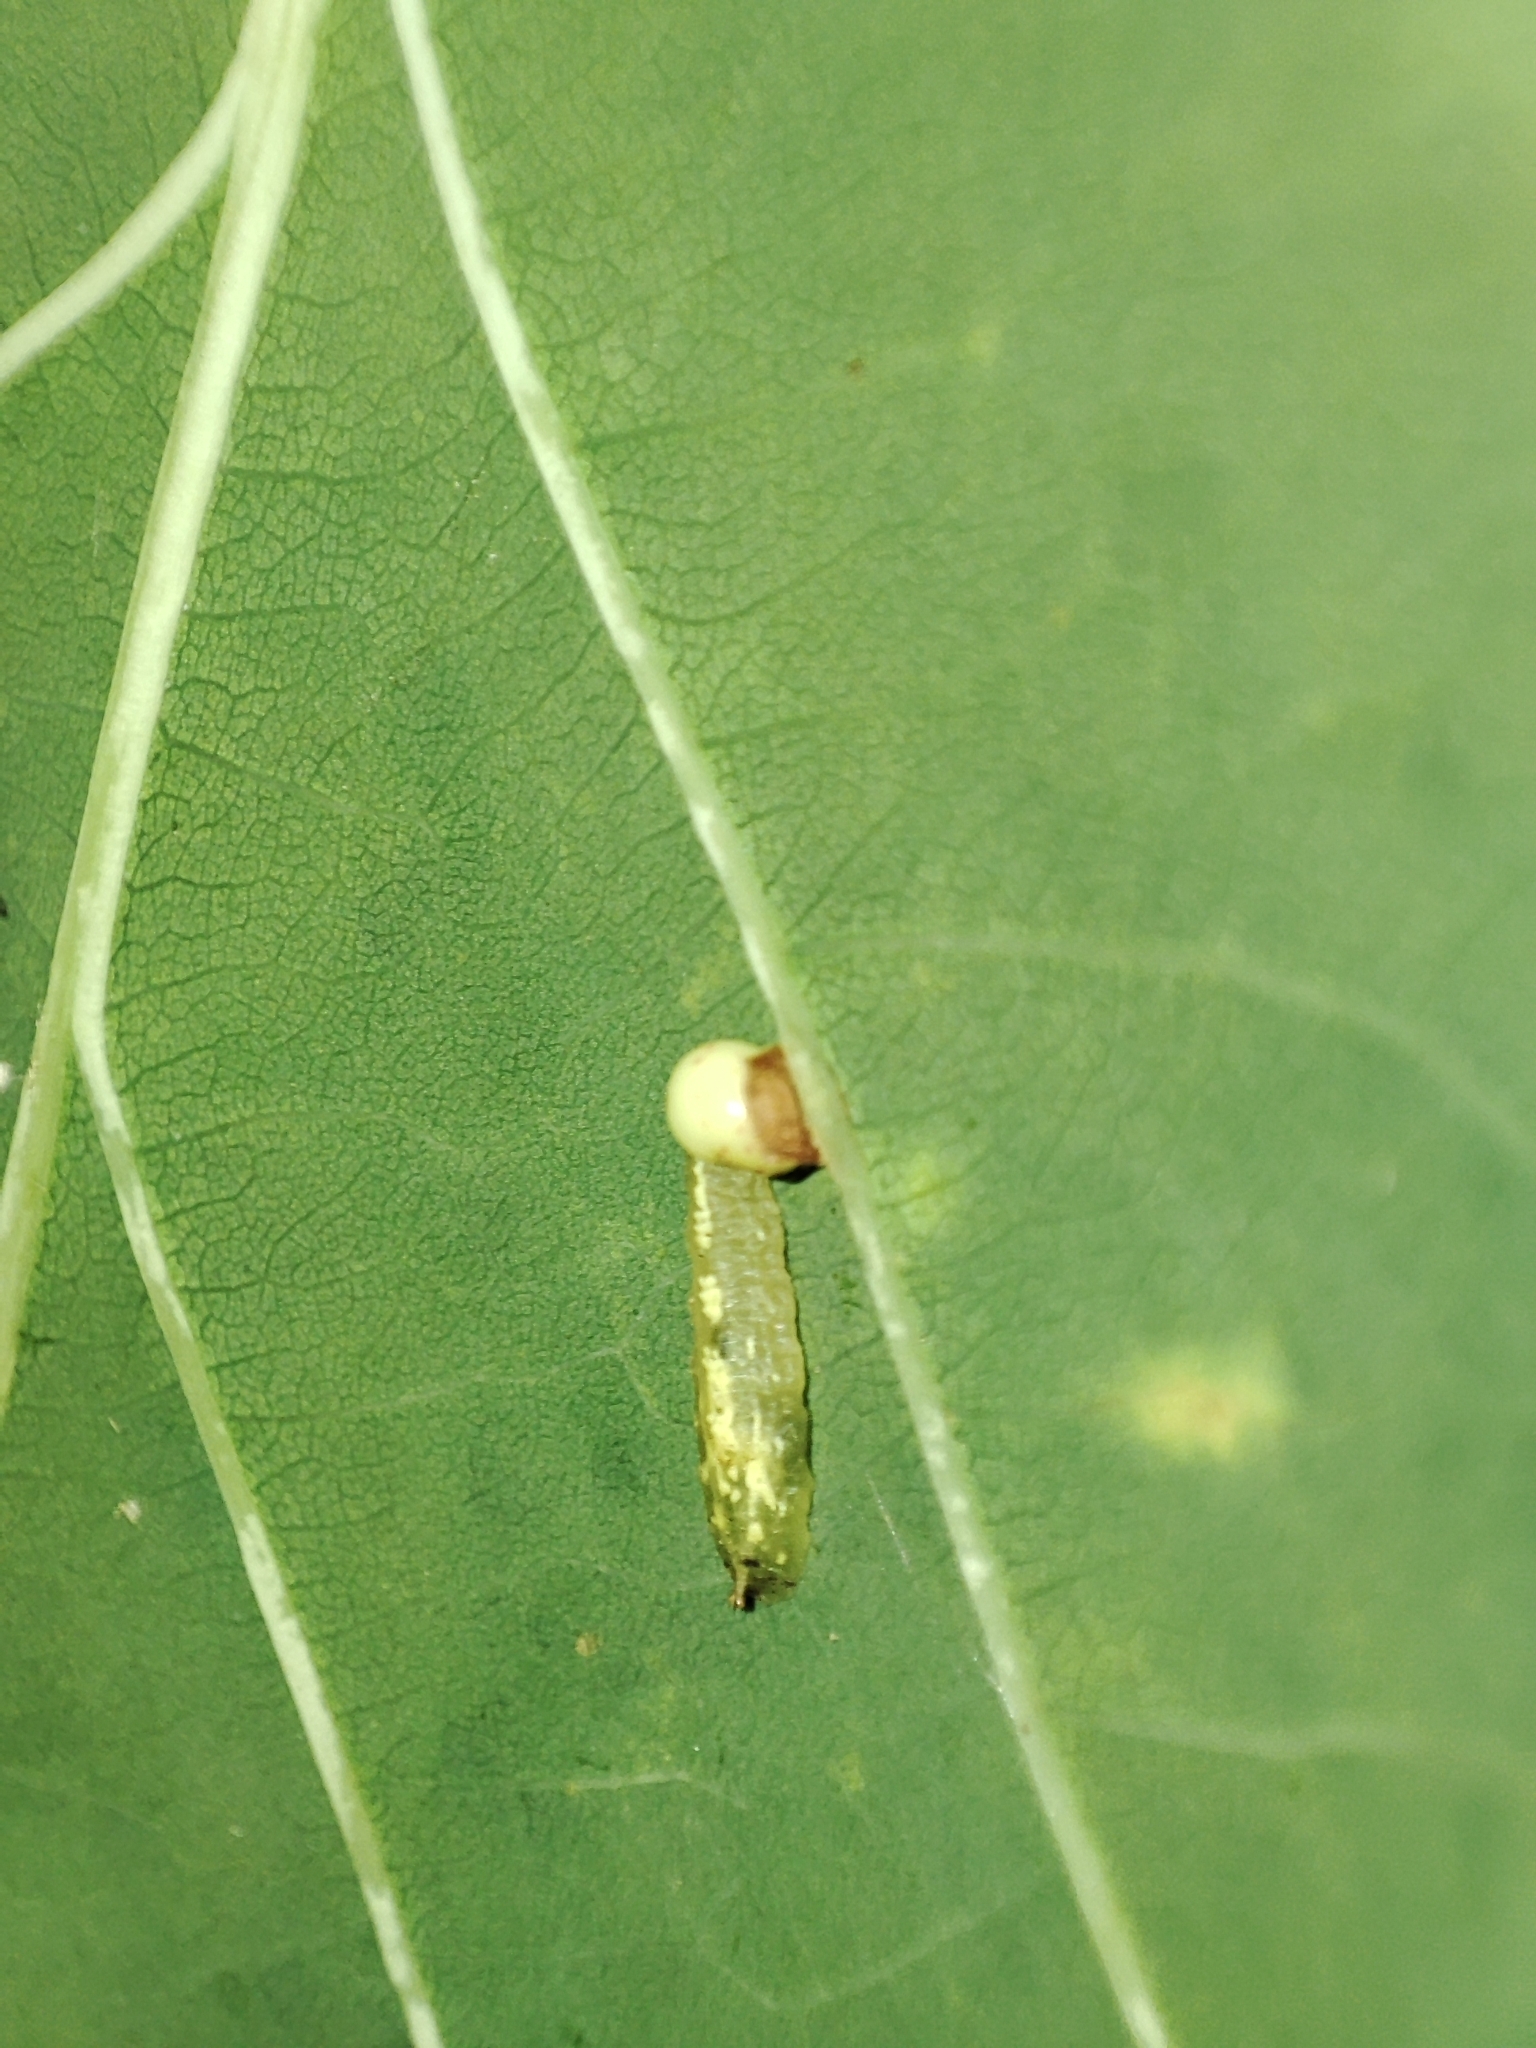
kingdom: Plantae
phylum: Tracheophyta
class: Magnoliopsida
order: Fagales
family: Fagaceae
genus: Quercus
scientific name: Quercus robur
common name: Pedunculate oak
